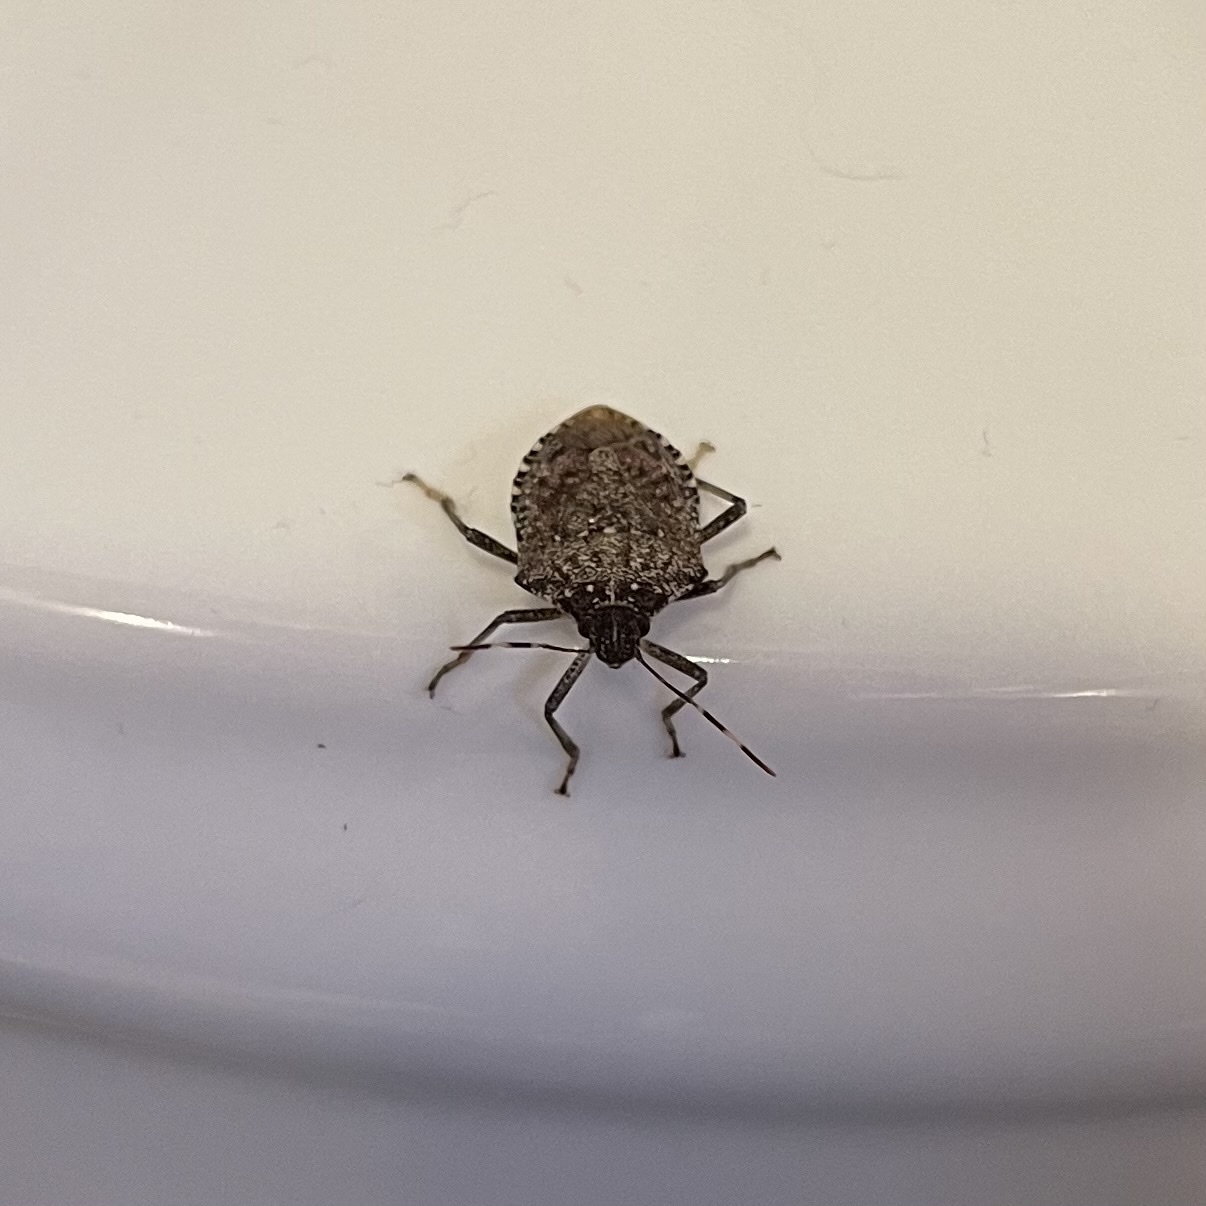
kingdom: Animalia
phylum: Arthropoda
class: Insecta
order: Hemiptera
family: Pentatomidae
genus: Halyomorpha
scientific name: Halyomorpha halys
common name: Brown marmorated stink bug
